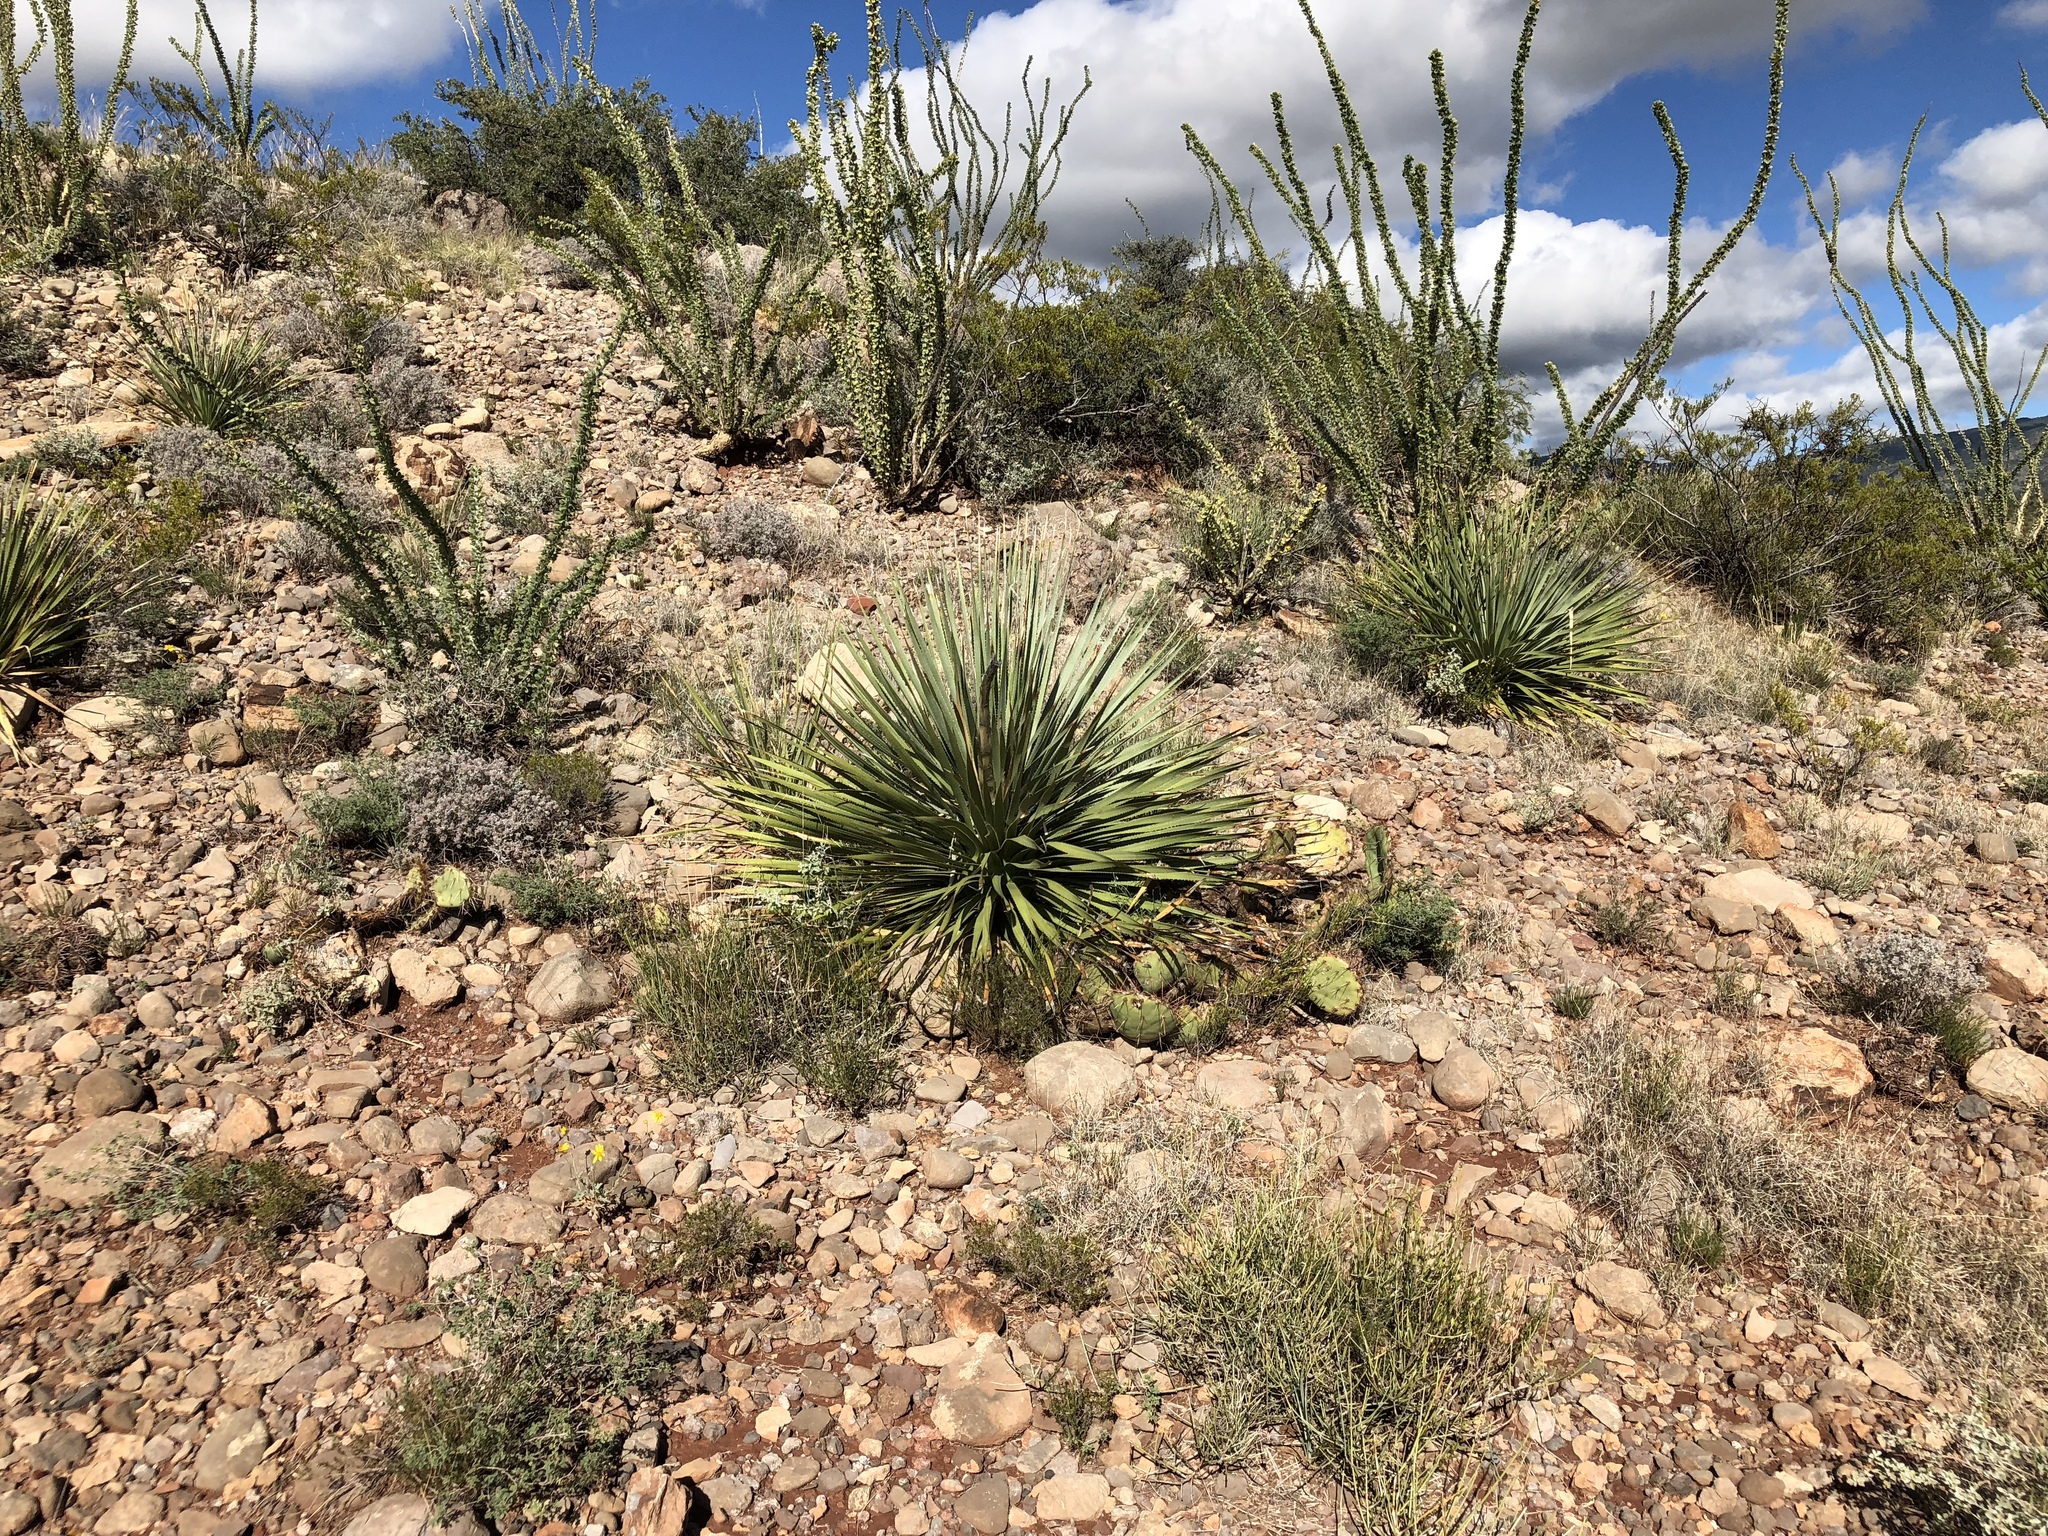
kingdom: Plantae
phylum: Tracheophyta
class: Liliopsida
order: Asparagales
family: Asparagaceae
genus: Dasylirion
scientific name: Dasylirion wheeleri
